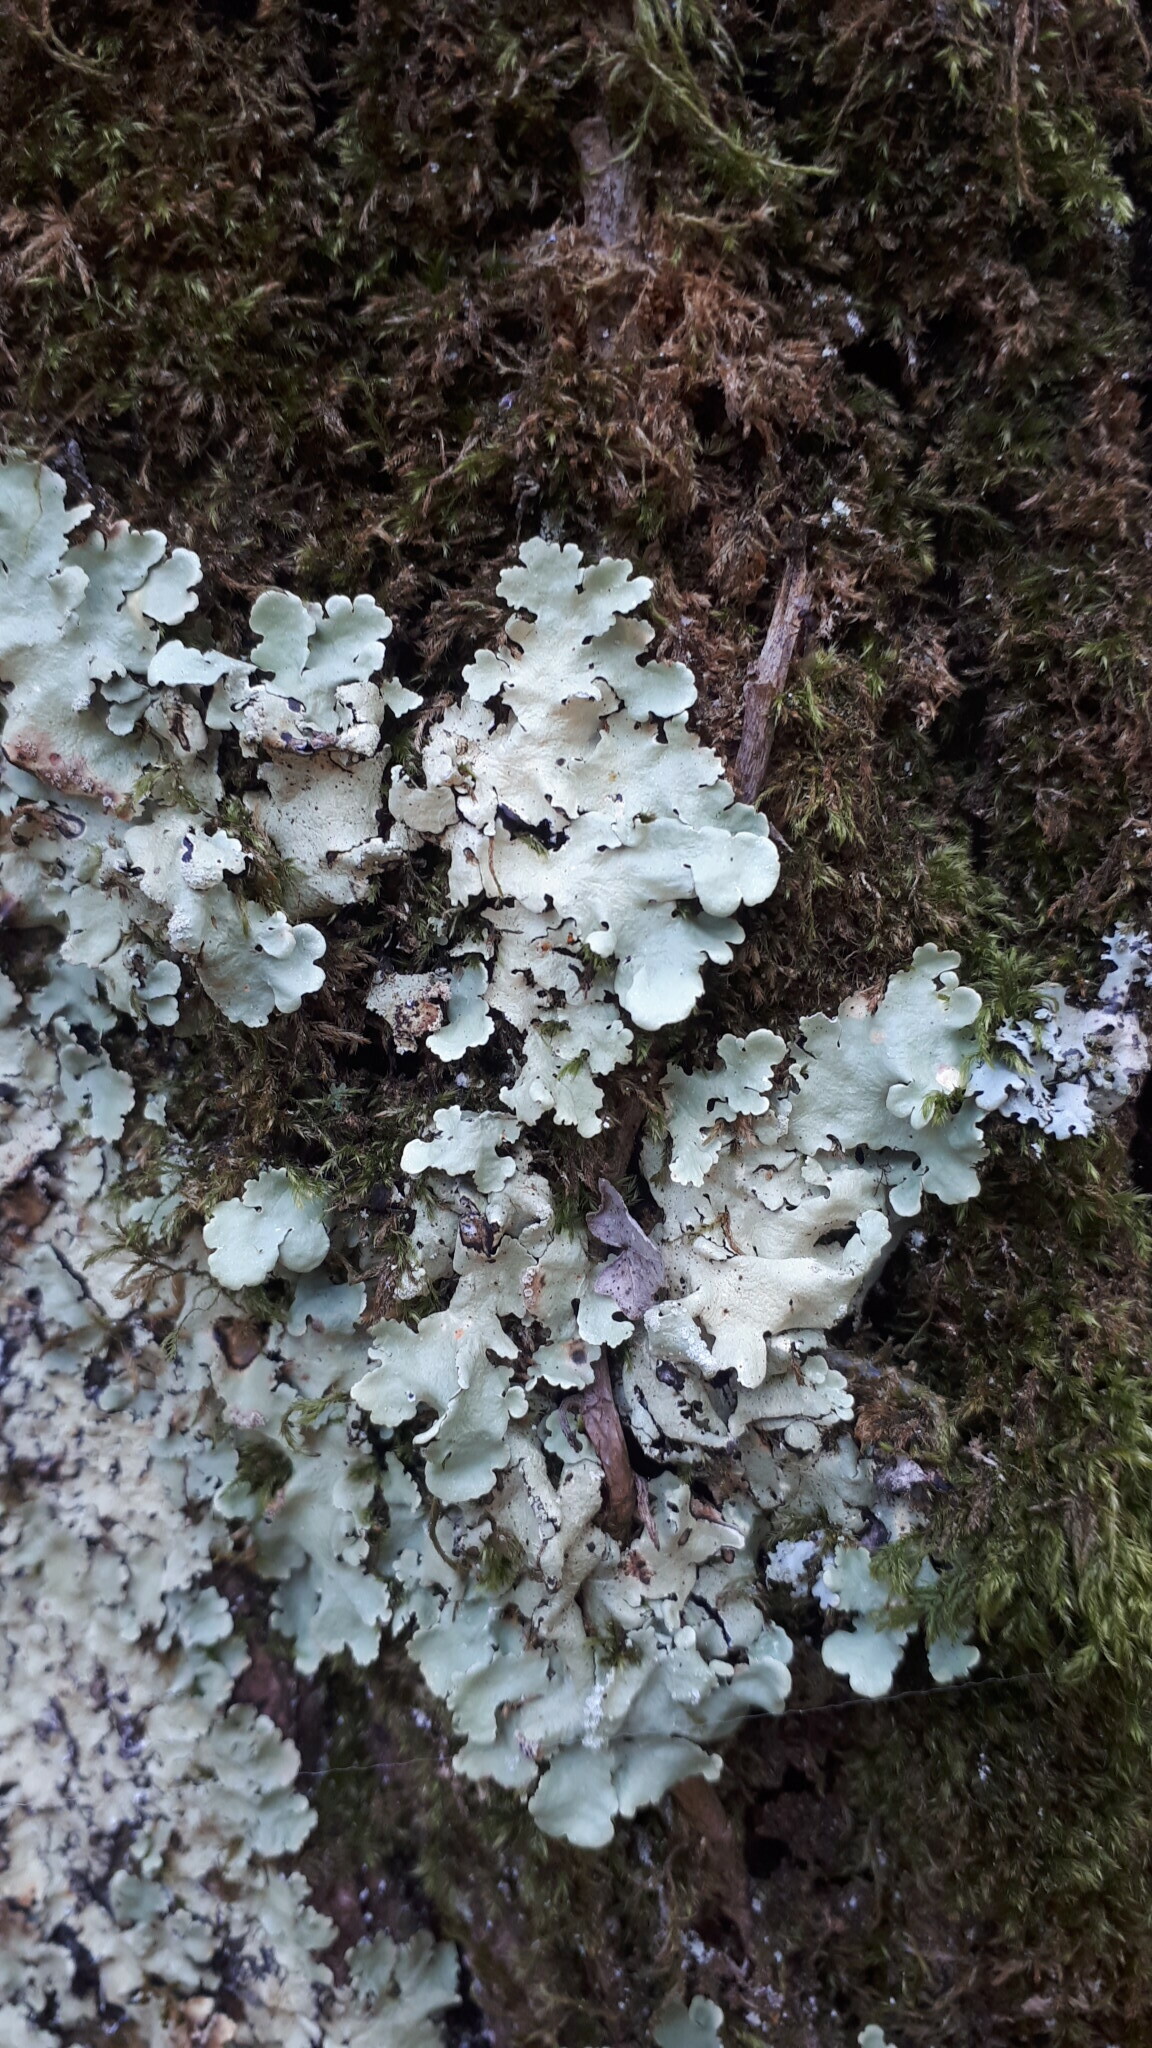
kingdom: Fungi
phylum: Ascomycota
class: Lecanoromycetes
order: Lecanorales
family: Parmeliaceae
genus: Flavoparmelia
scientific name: Flavoparmelia caperata
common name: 40-mile per hour lichen
